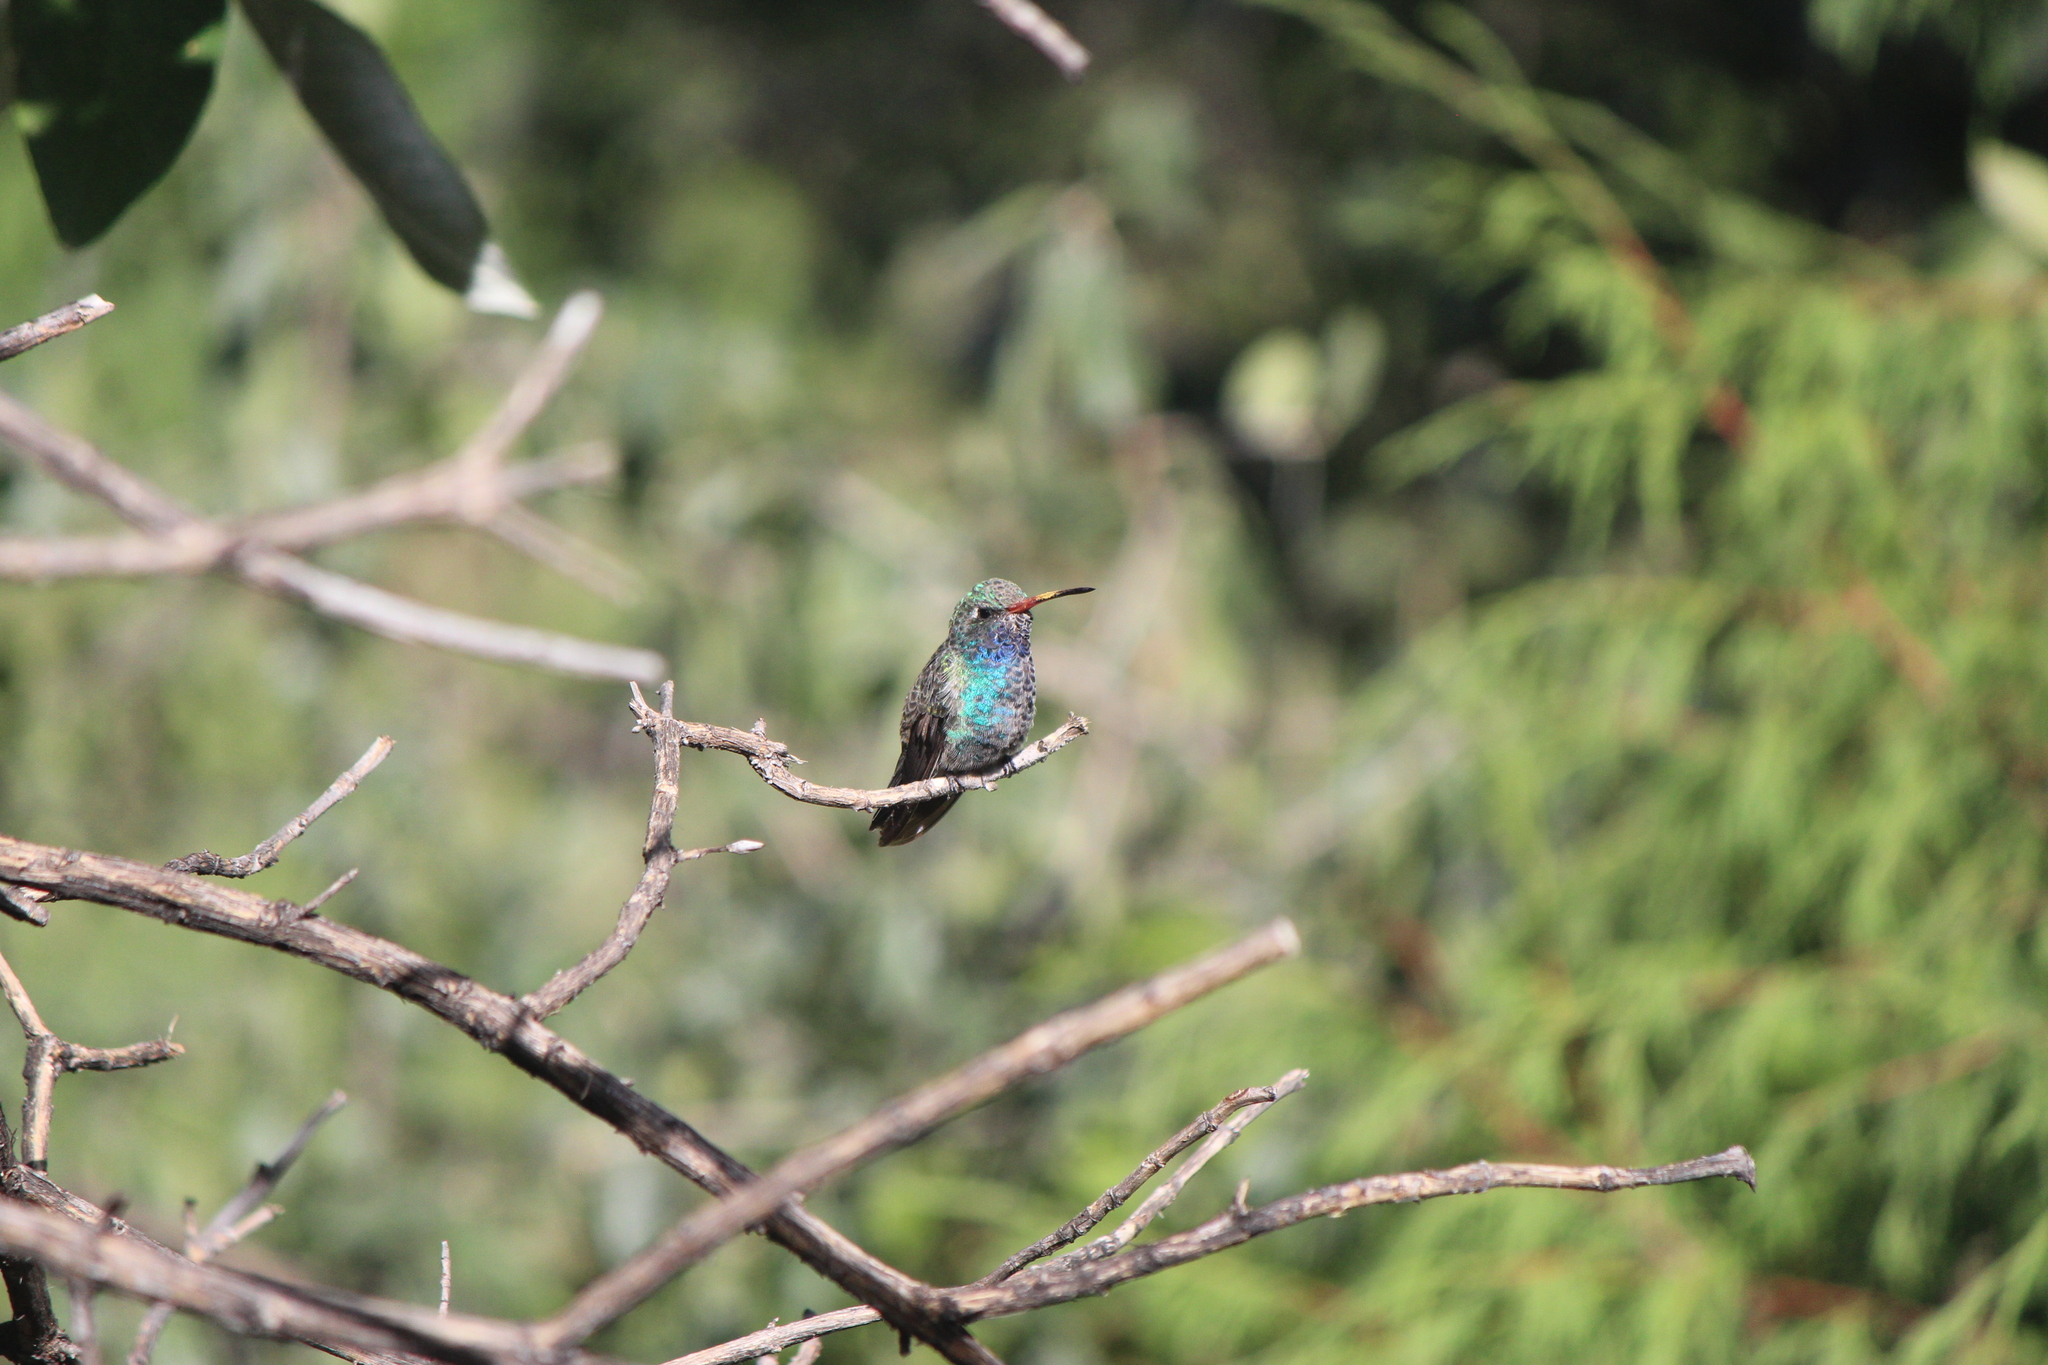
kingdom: Animalia
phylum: Chordata
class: Aves
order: Apodiformes
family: Trochilidae
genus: Cynanthus
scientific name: Cynanthus latirostris
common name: Broad-billed hummingbird
